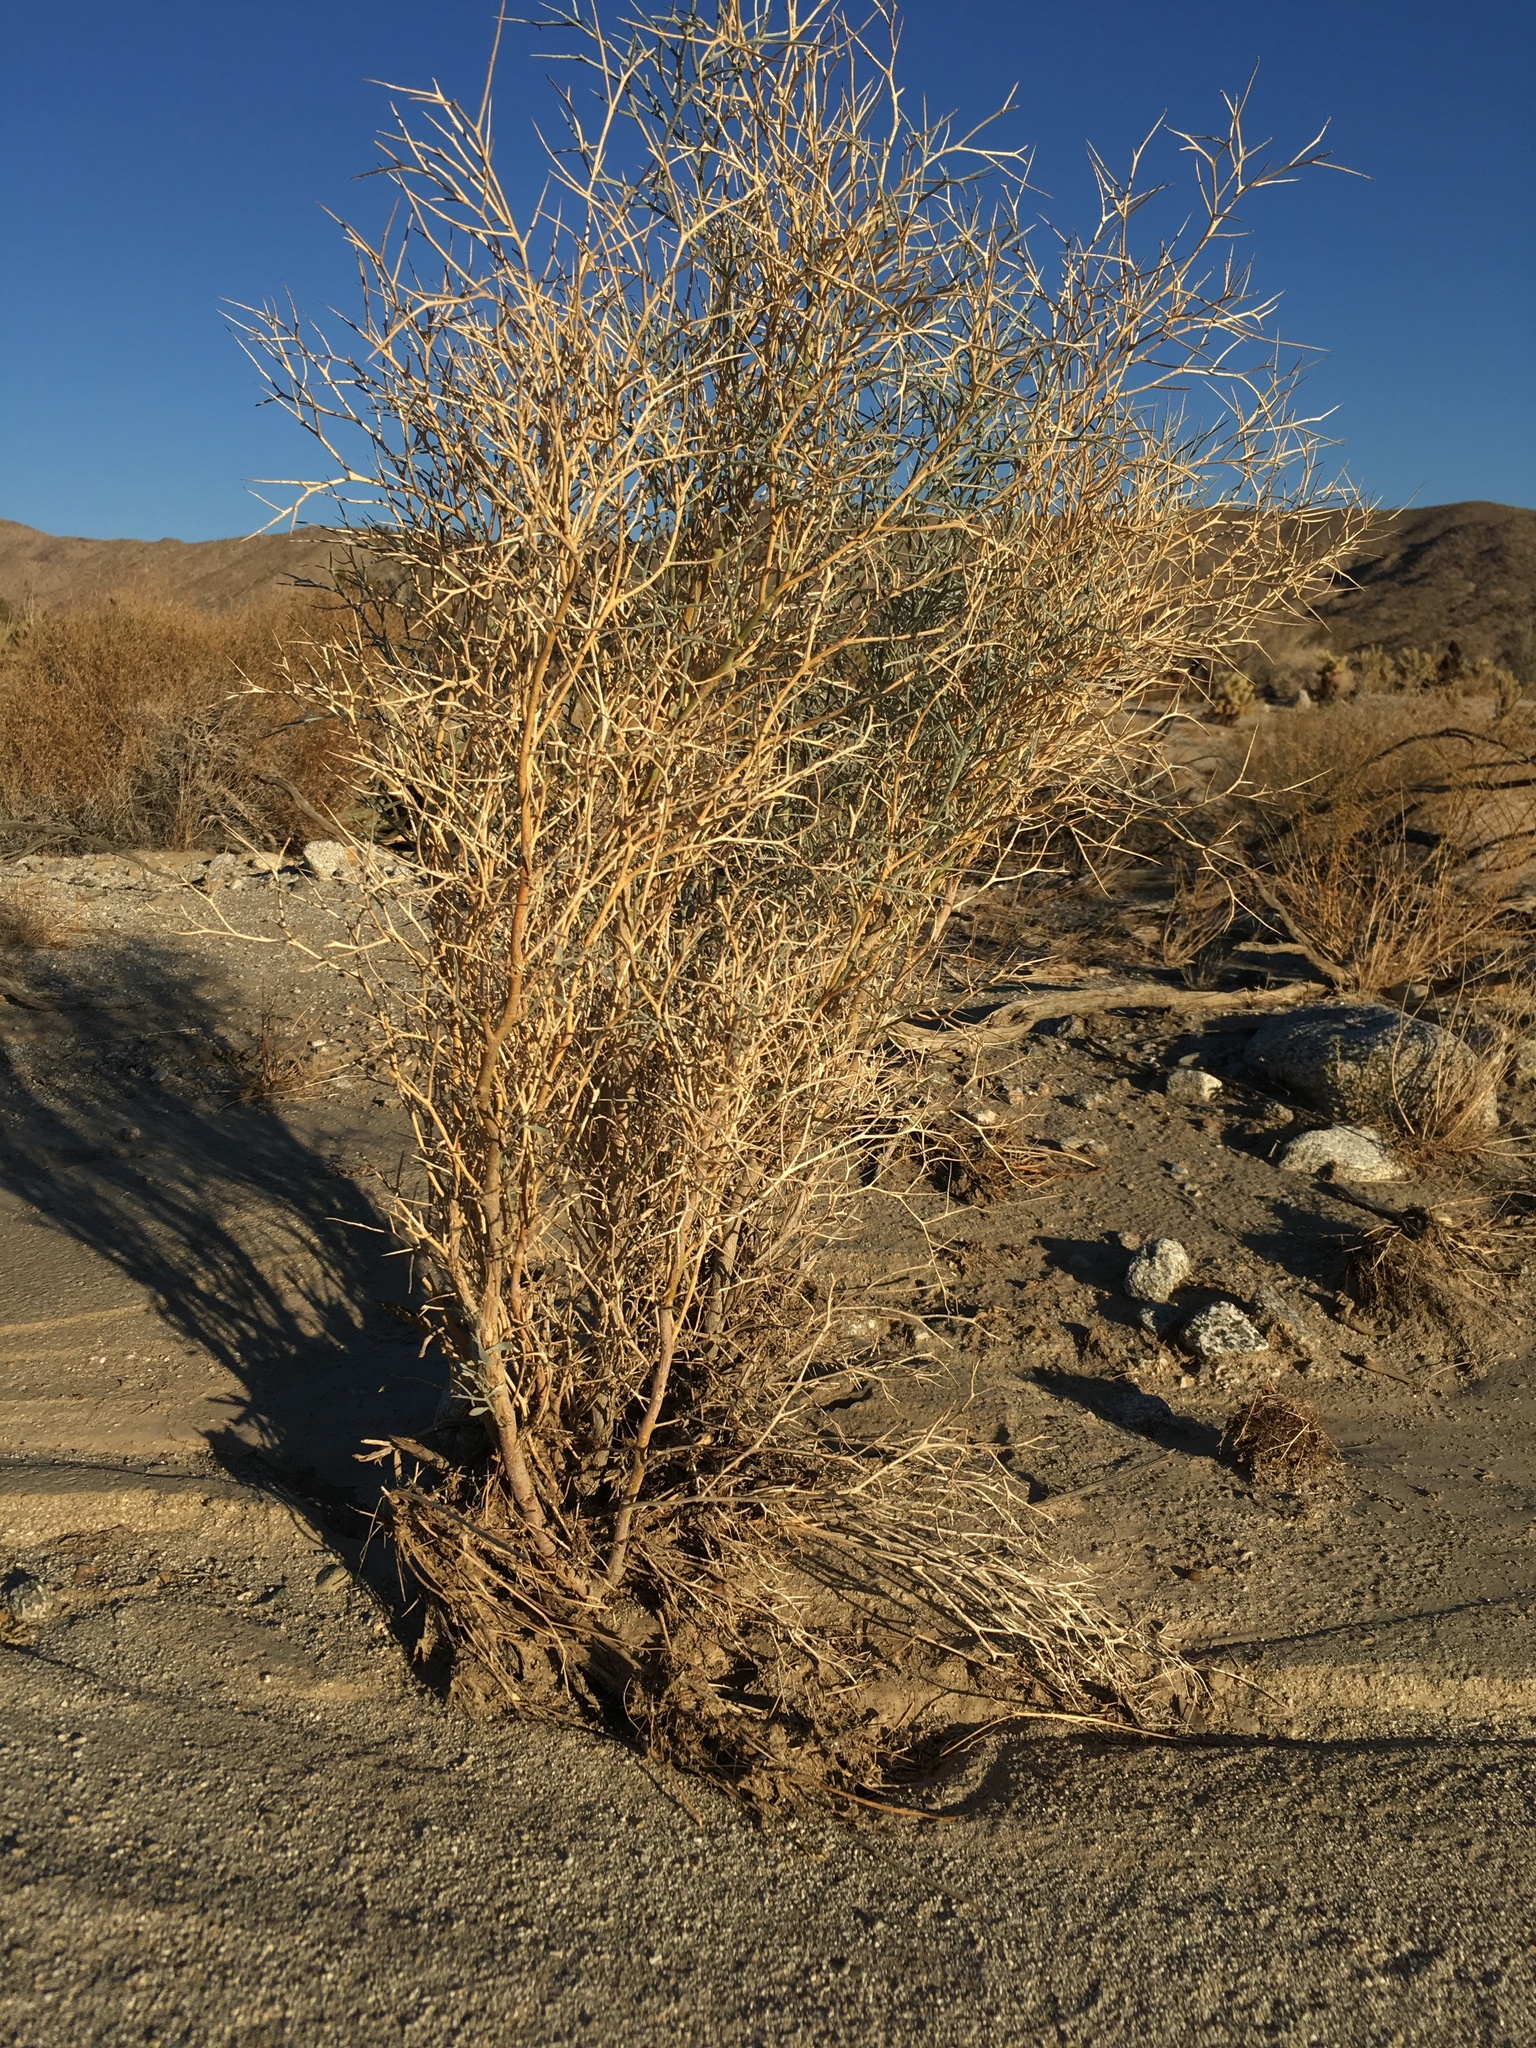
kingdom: Plantae
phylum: Tracheophyta
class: Magnoliopsida
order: Fabales
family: Fabaceae
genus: Psorothamnus
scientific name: Psorothamnus spinosus
